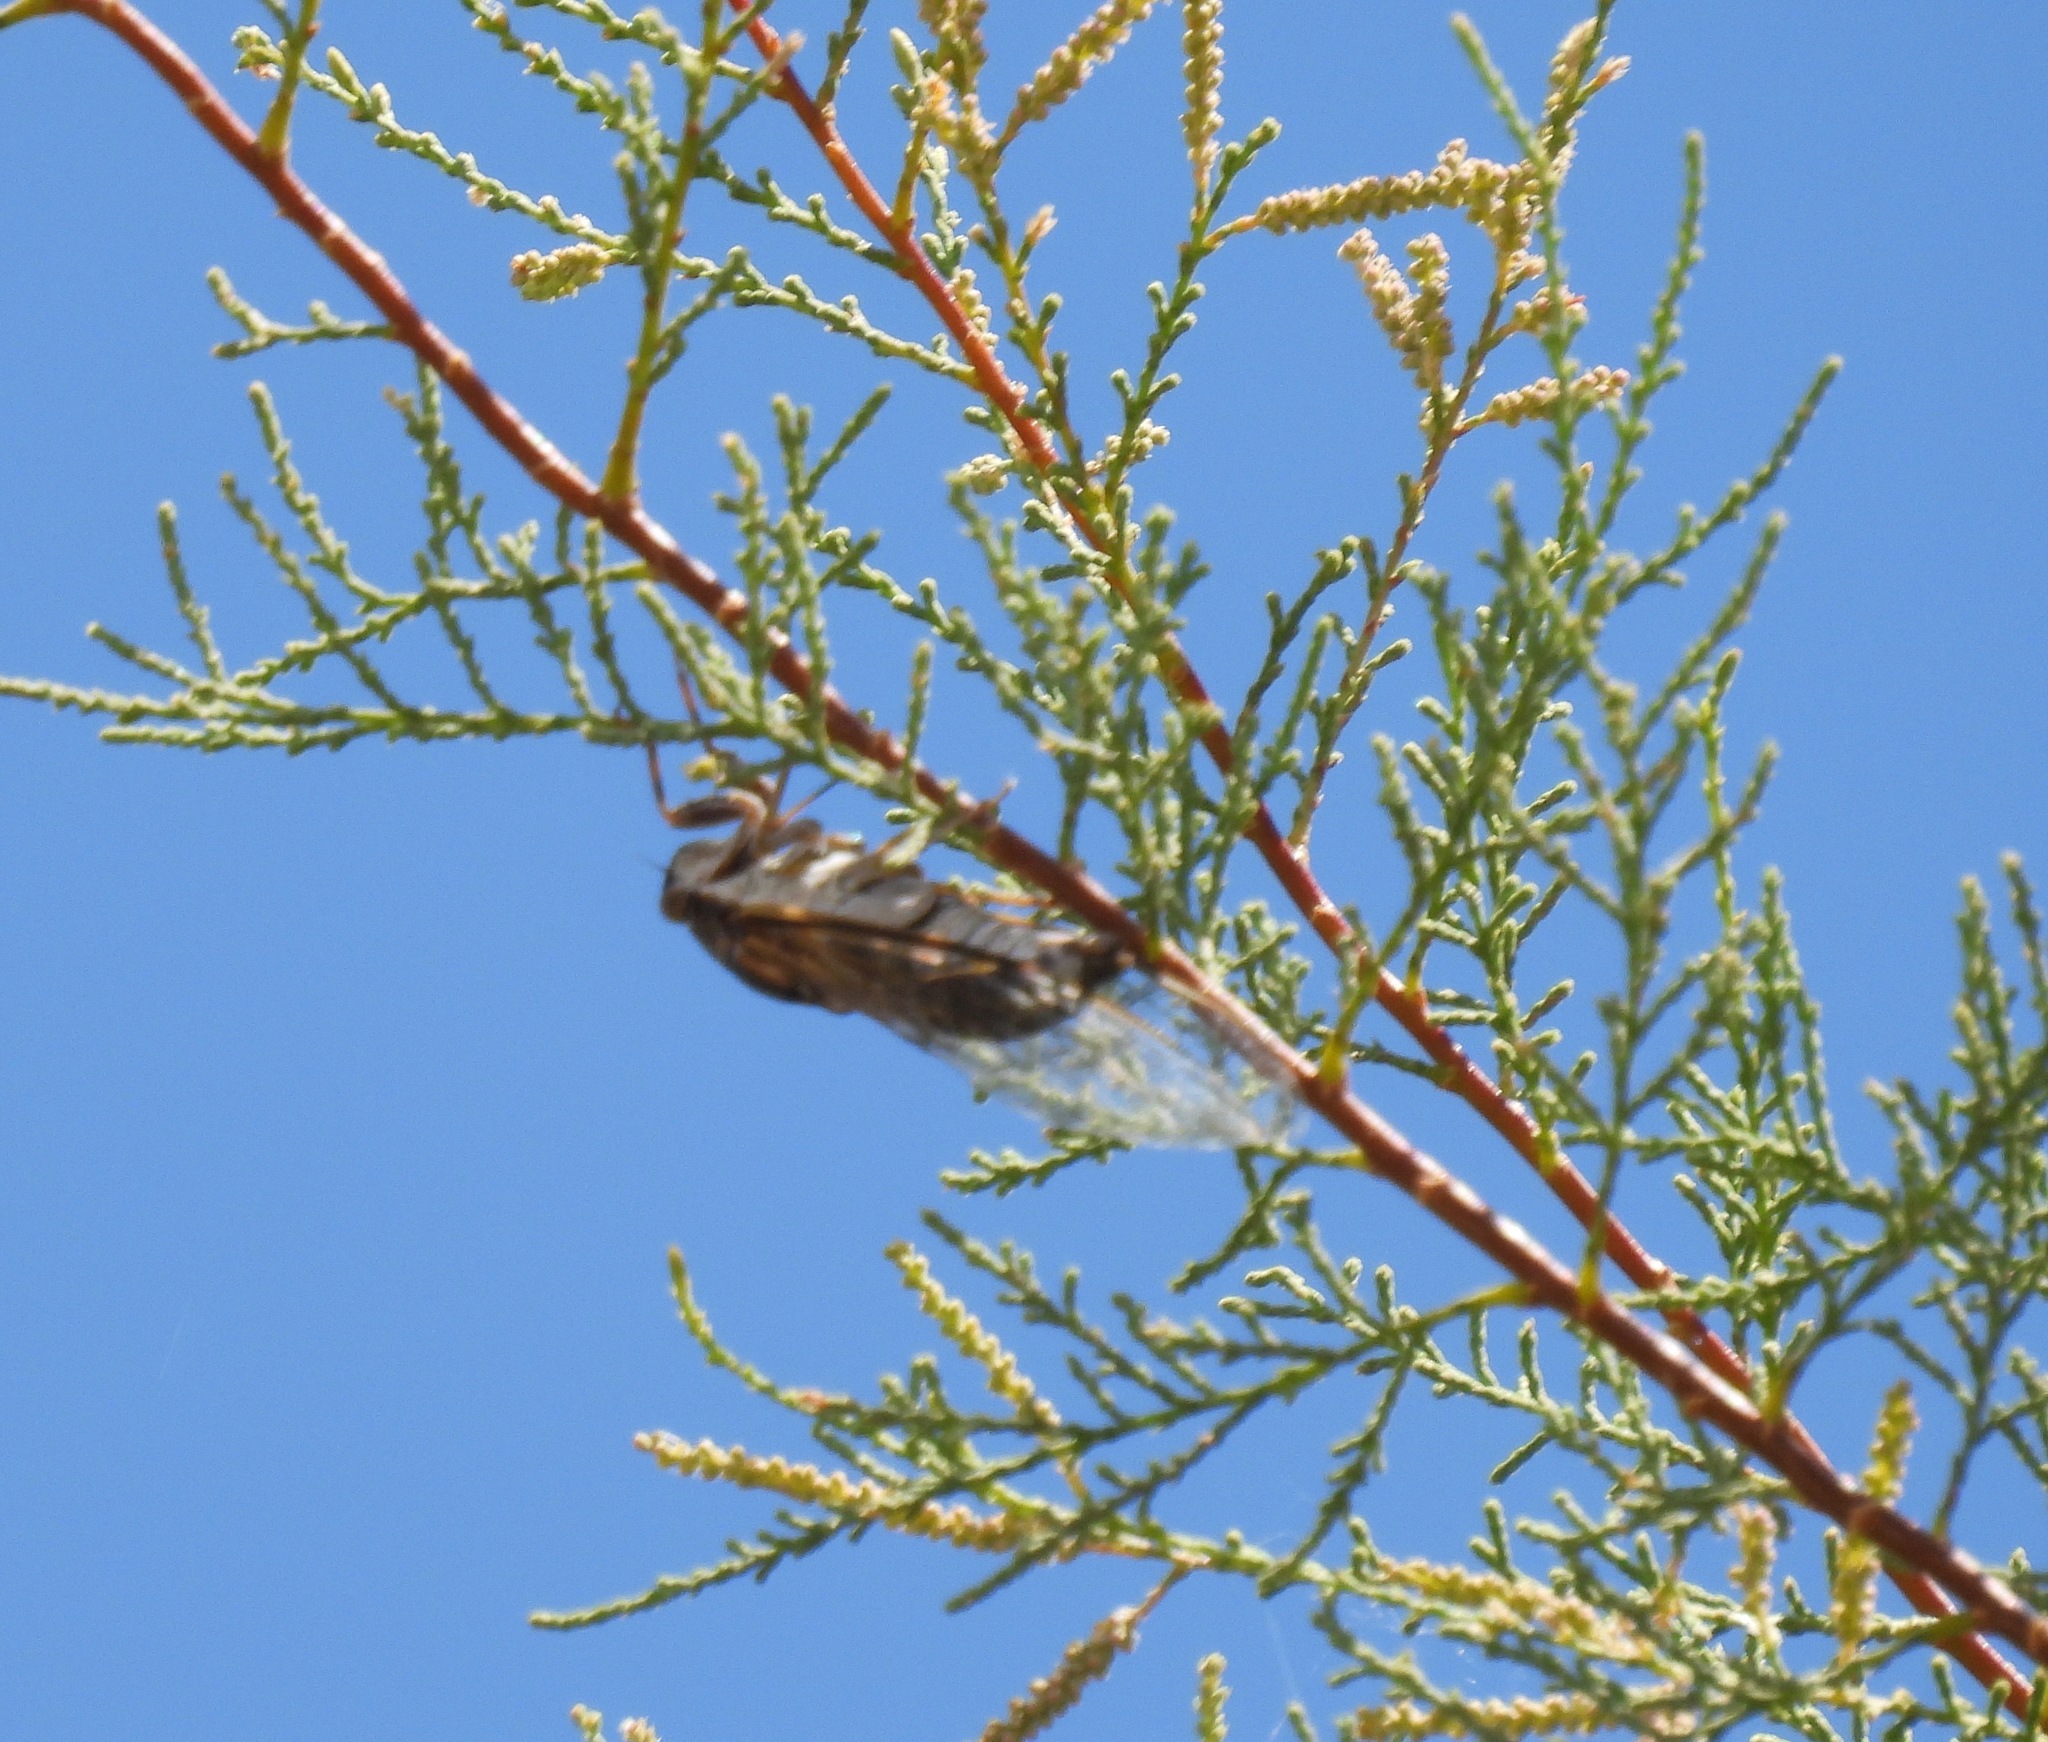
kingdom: Animalia
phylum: Arthropoda
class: Insecta
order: Hemiptera
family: Cicadidae
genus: Diceroprocta
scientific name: Diceroprocta eugraphica
